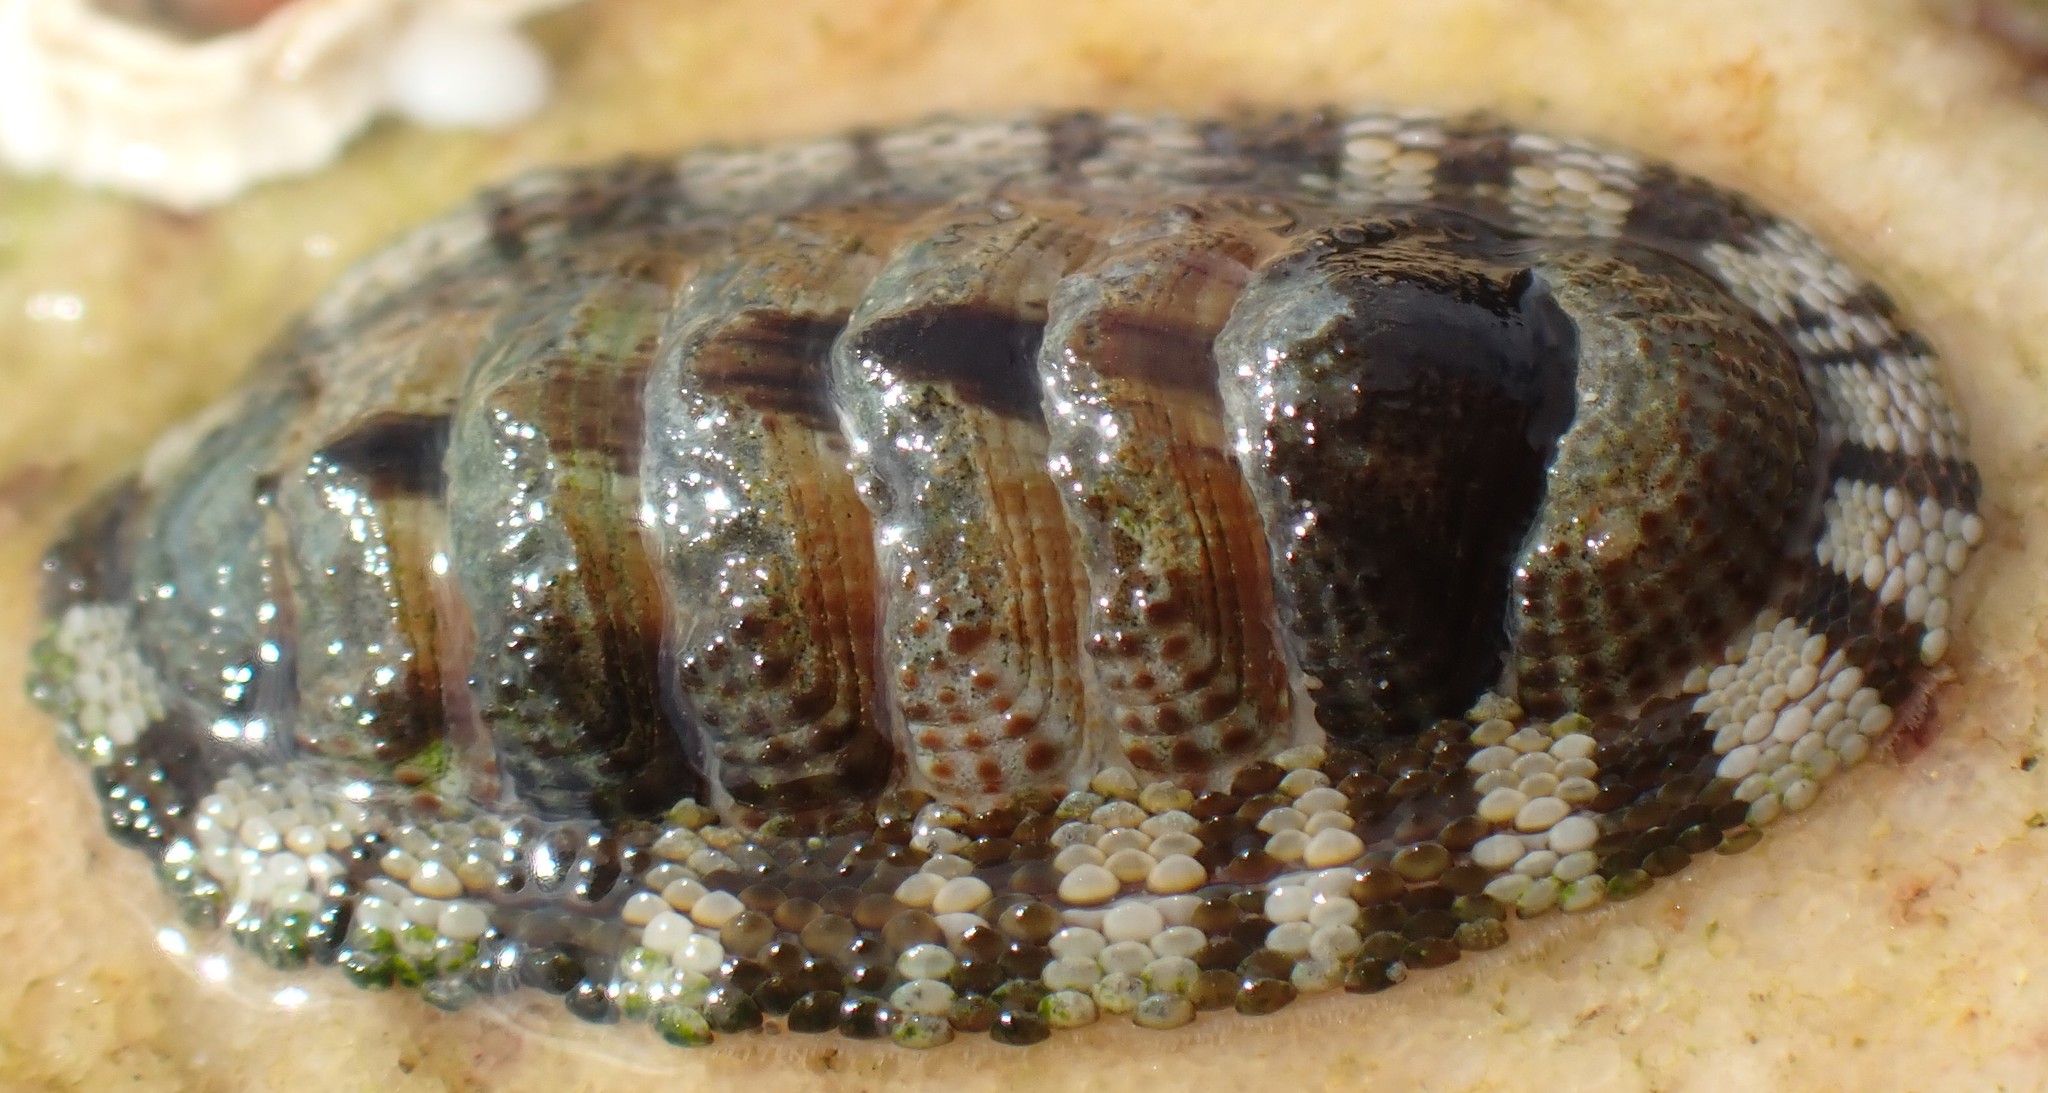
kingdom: Animalia
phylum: Mollusca
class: Polyplacophora
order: Chitonida
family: Chitonidae
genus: Sypharochiton
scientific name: Sypharochiton pelliserpentis
